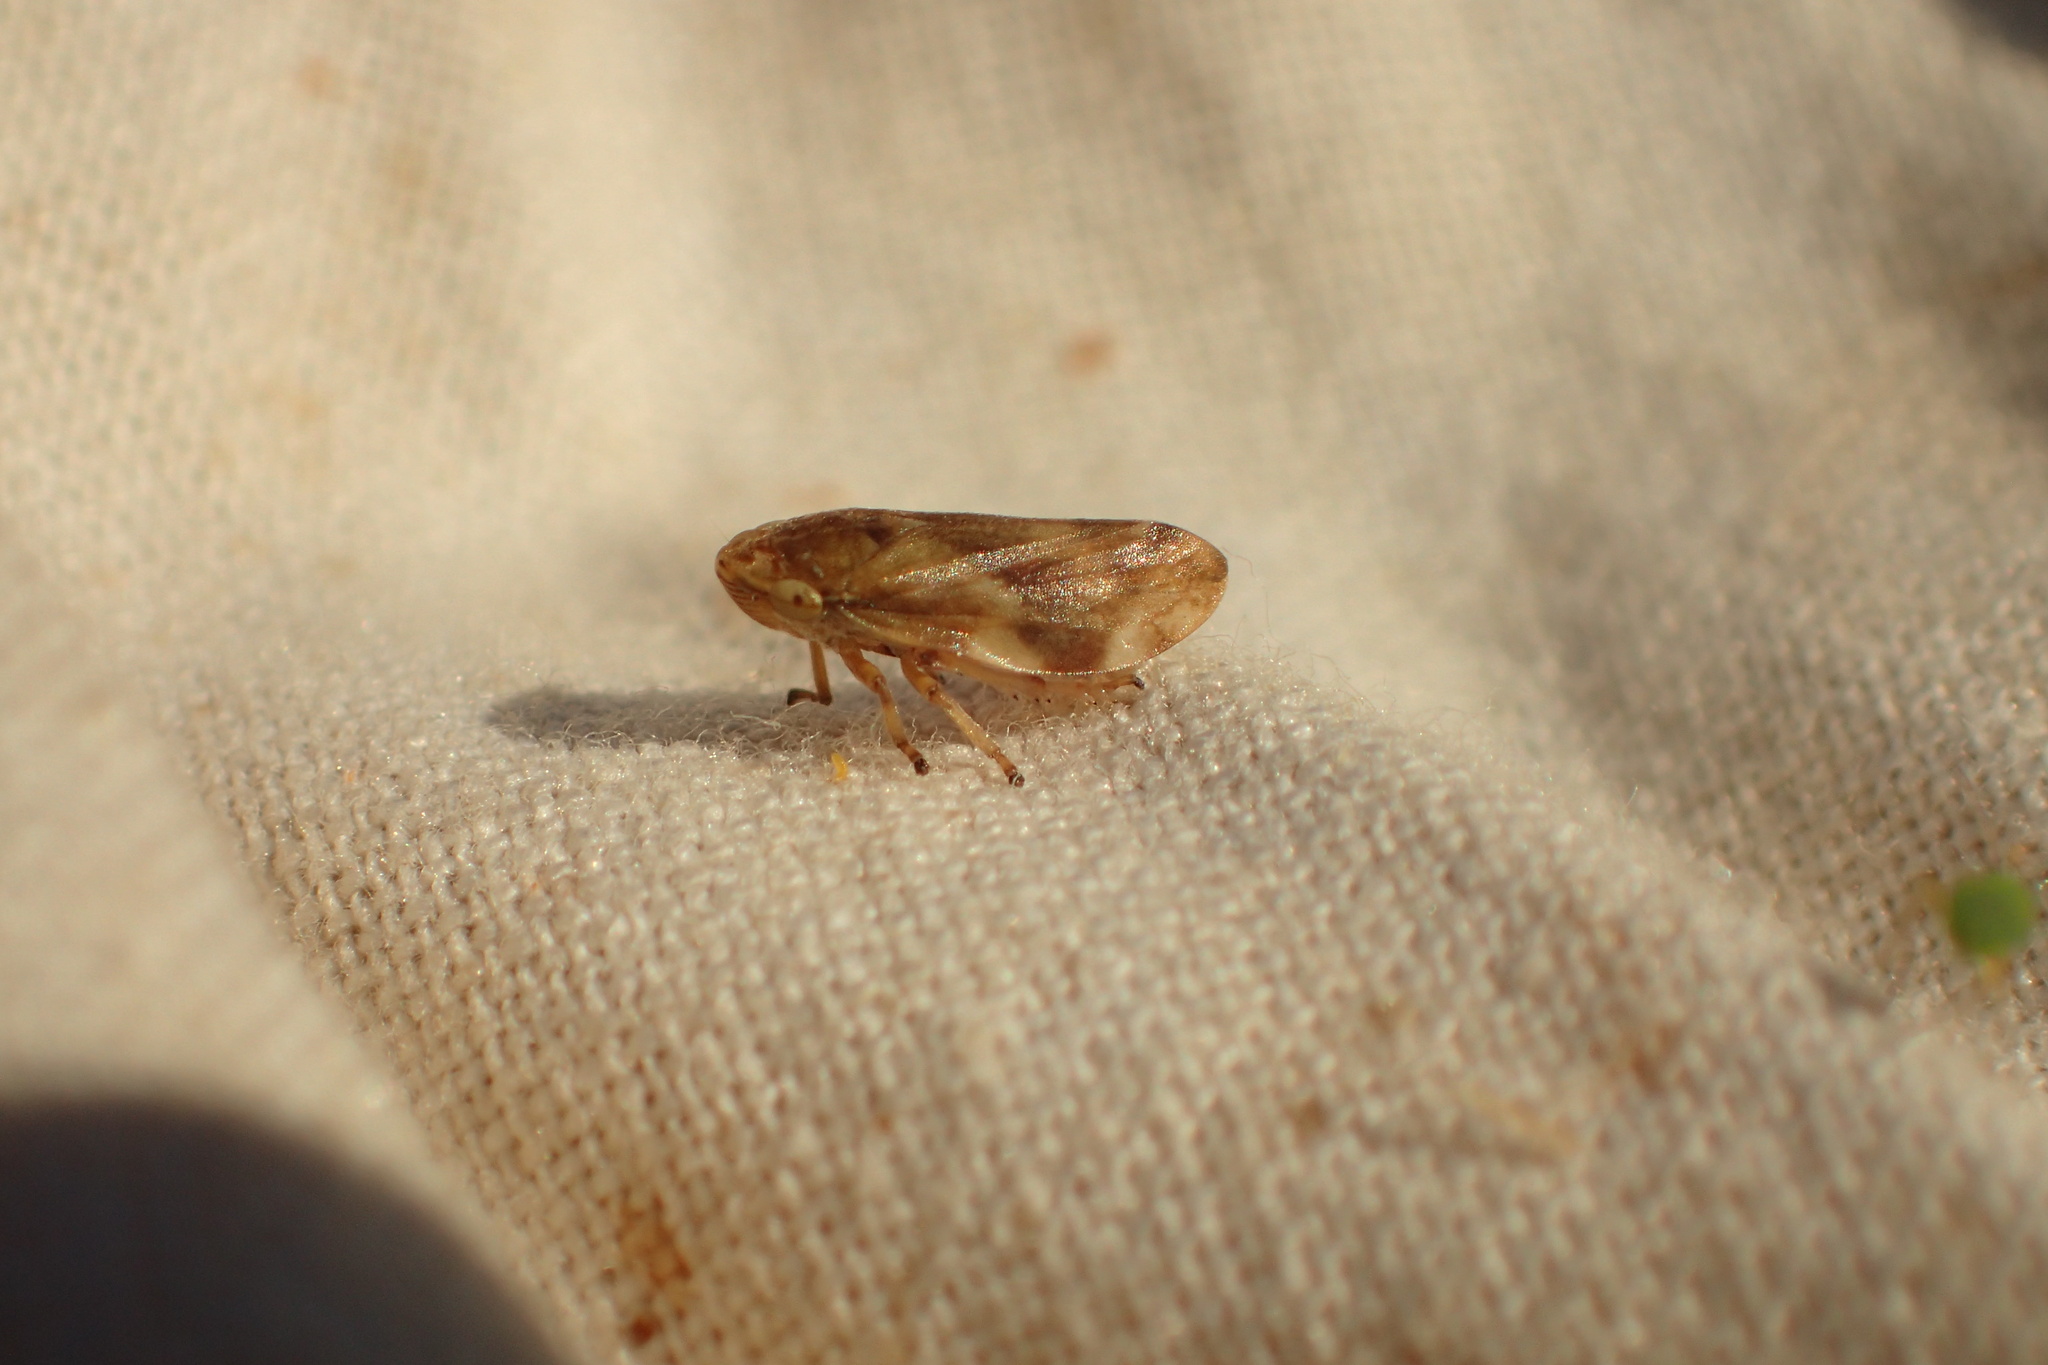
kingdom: Animalia
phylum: Arthropoda
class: Insecta
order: Hemiptera
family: Aphrophoridae
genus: Philaenus
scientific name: Philaenus spumarius
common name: Meadow spittlebug
